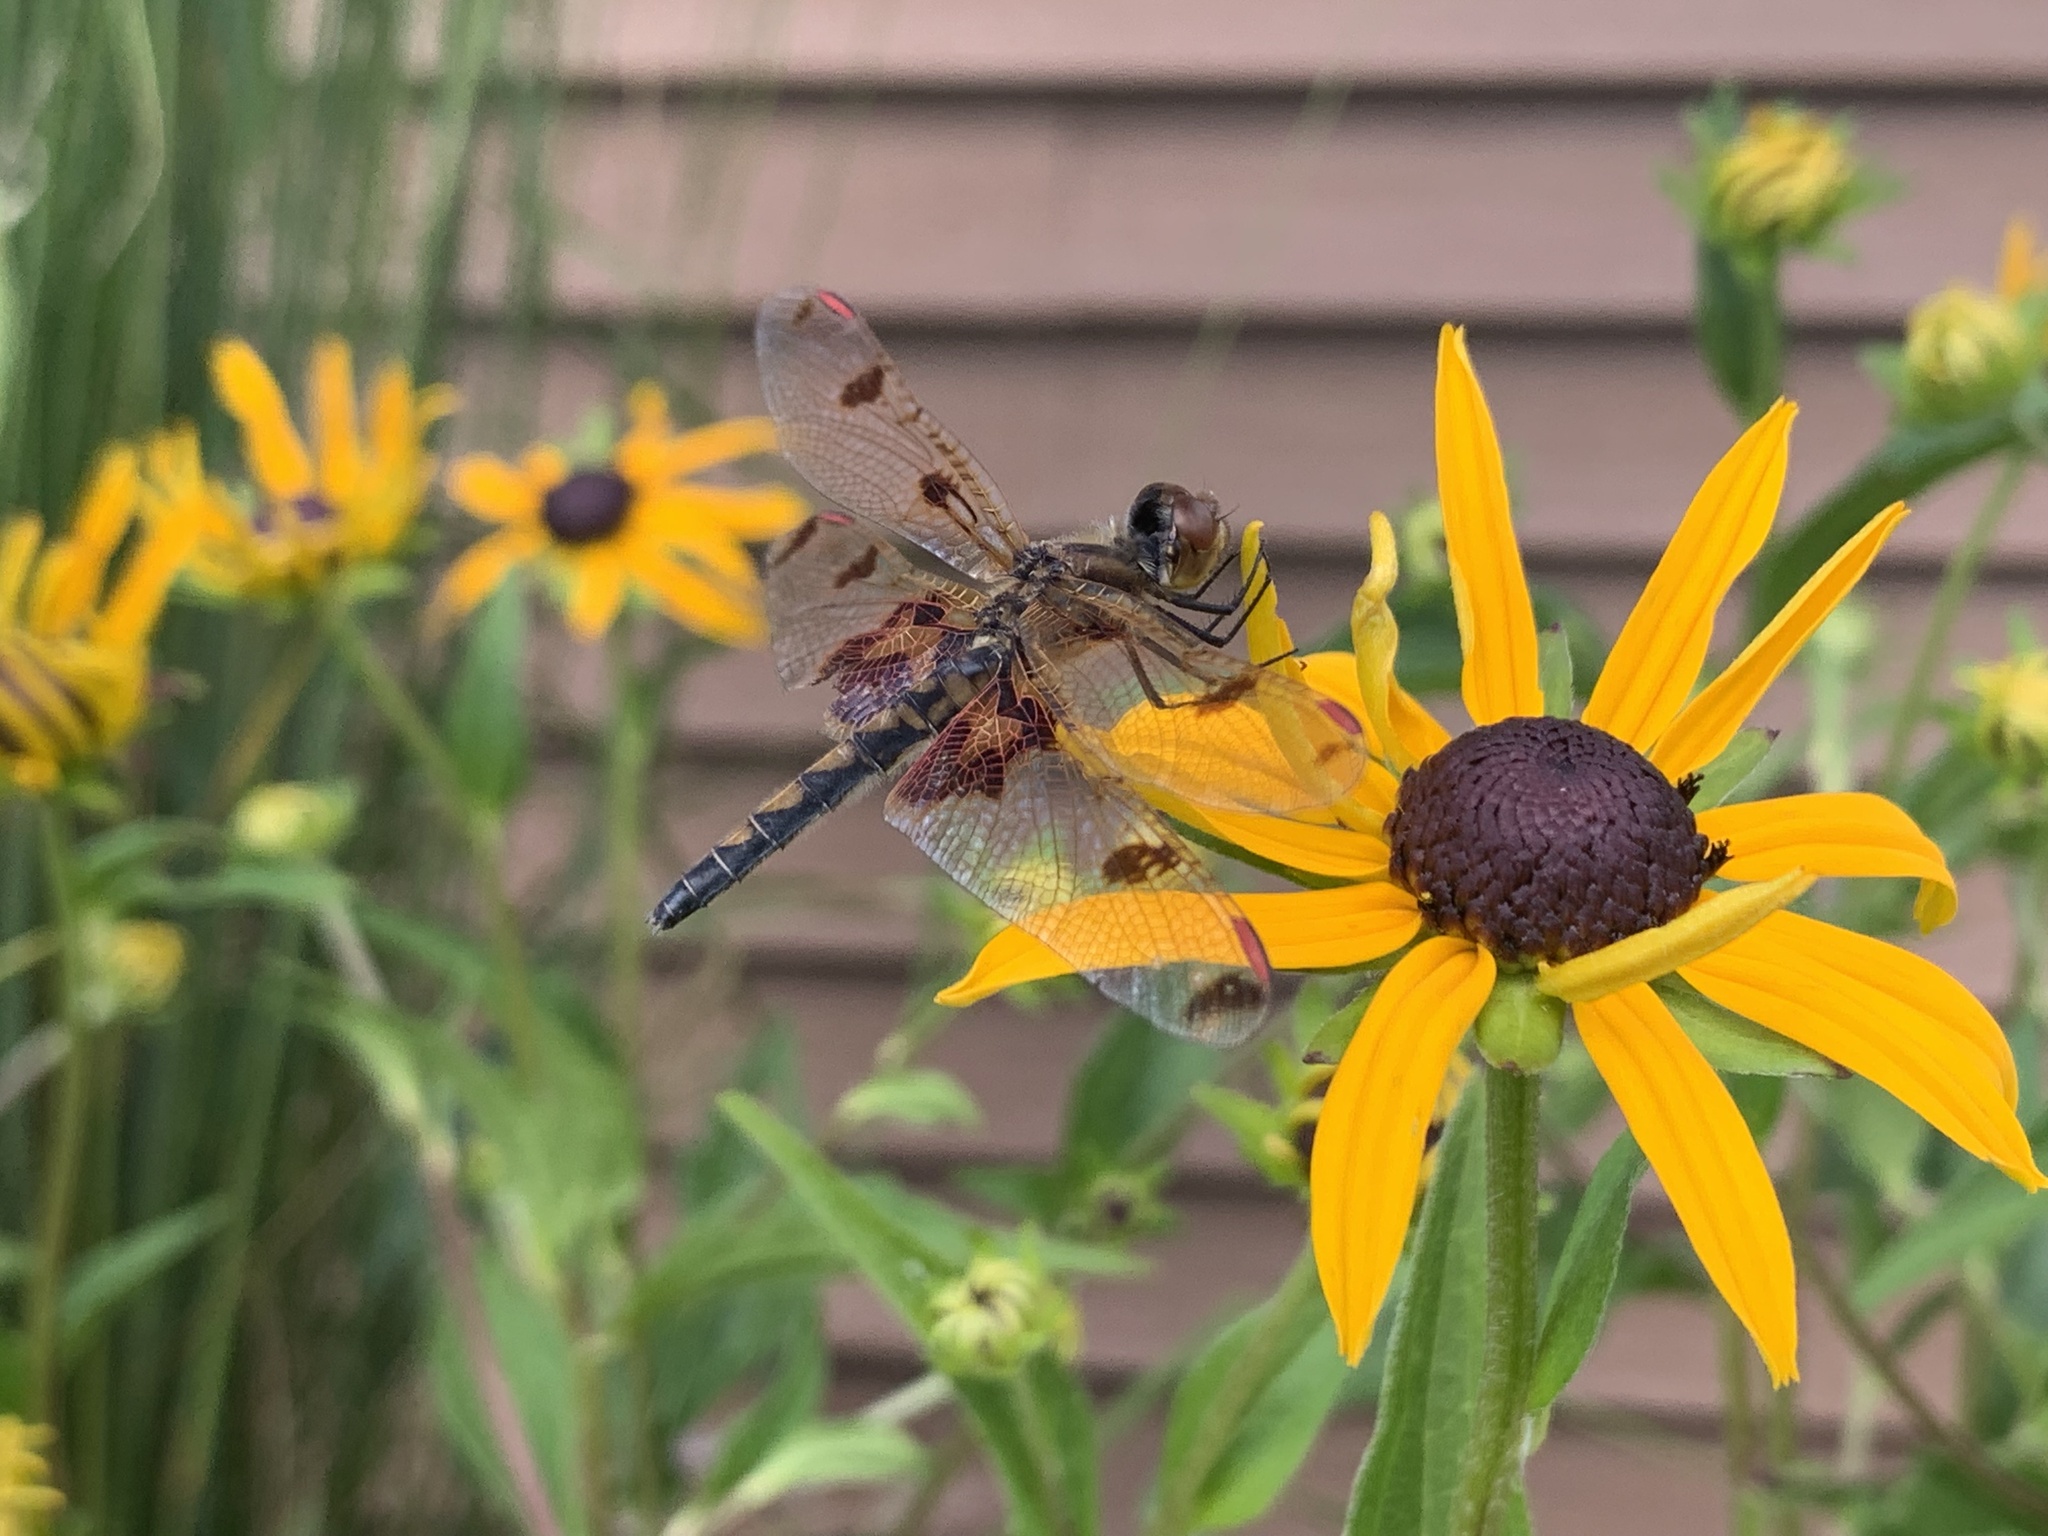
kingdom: Animalia
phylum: Arthropoda
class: Insecta
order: Odonata
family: Libellulidae
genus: Celithemis
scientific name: Celithemis elisa
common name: Calico pennant
